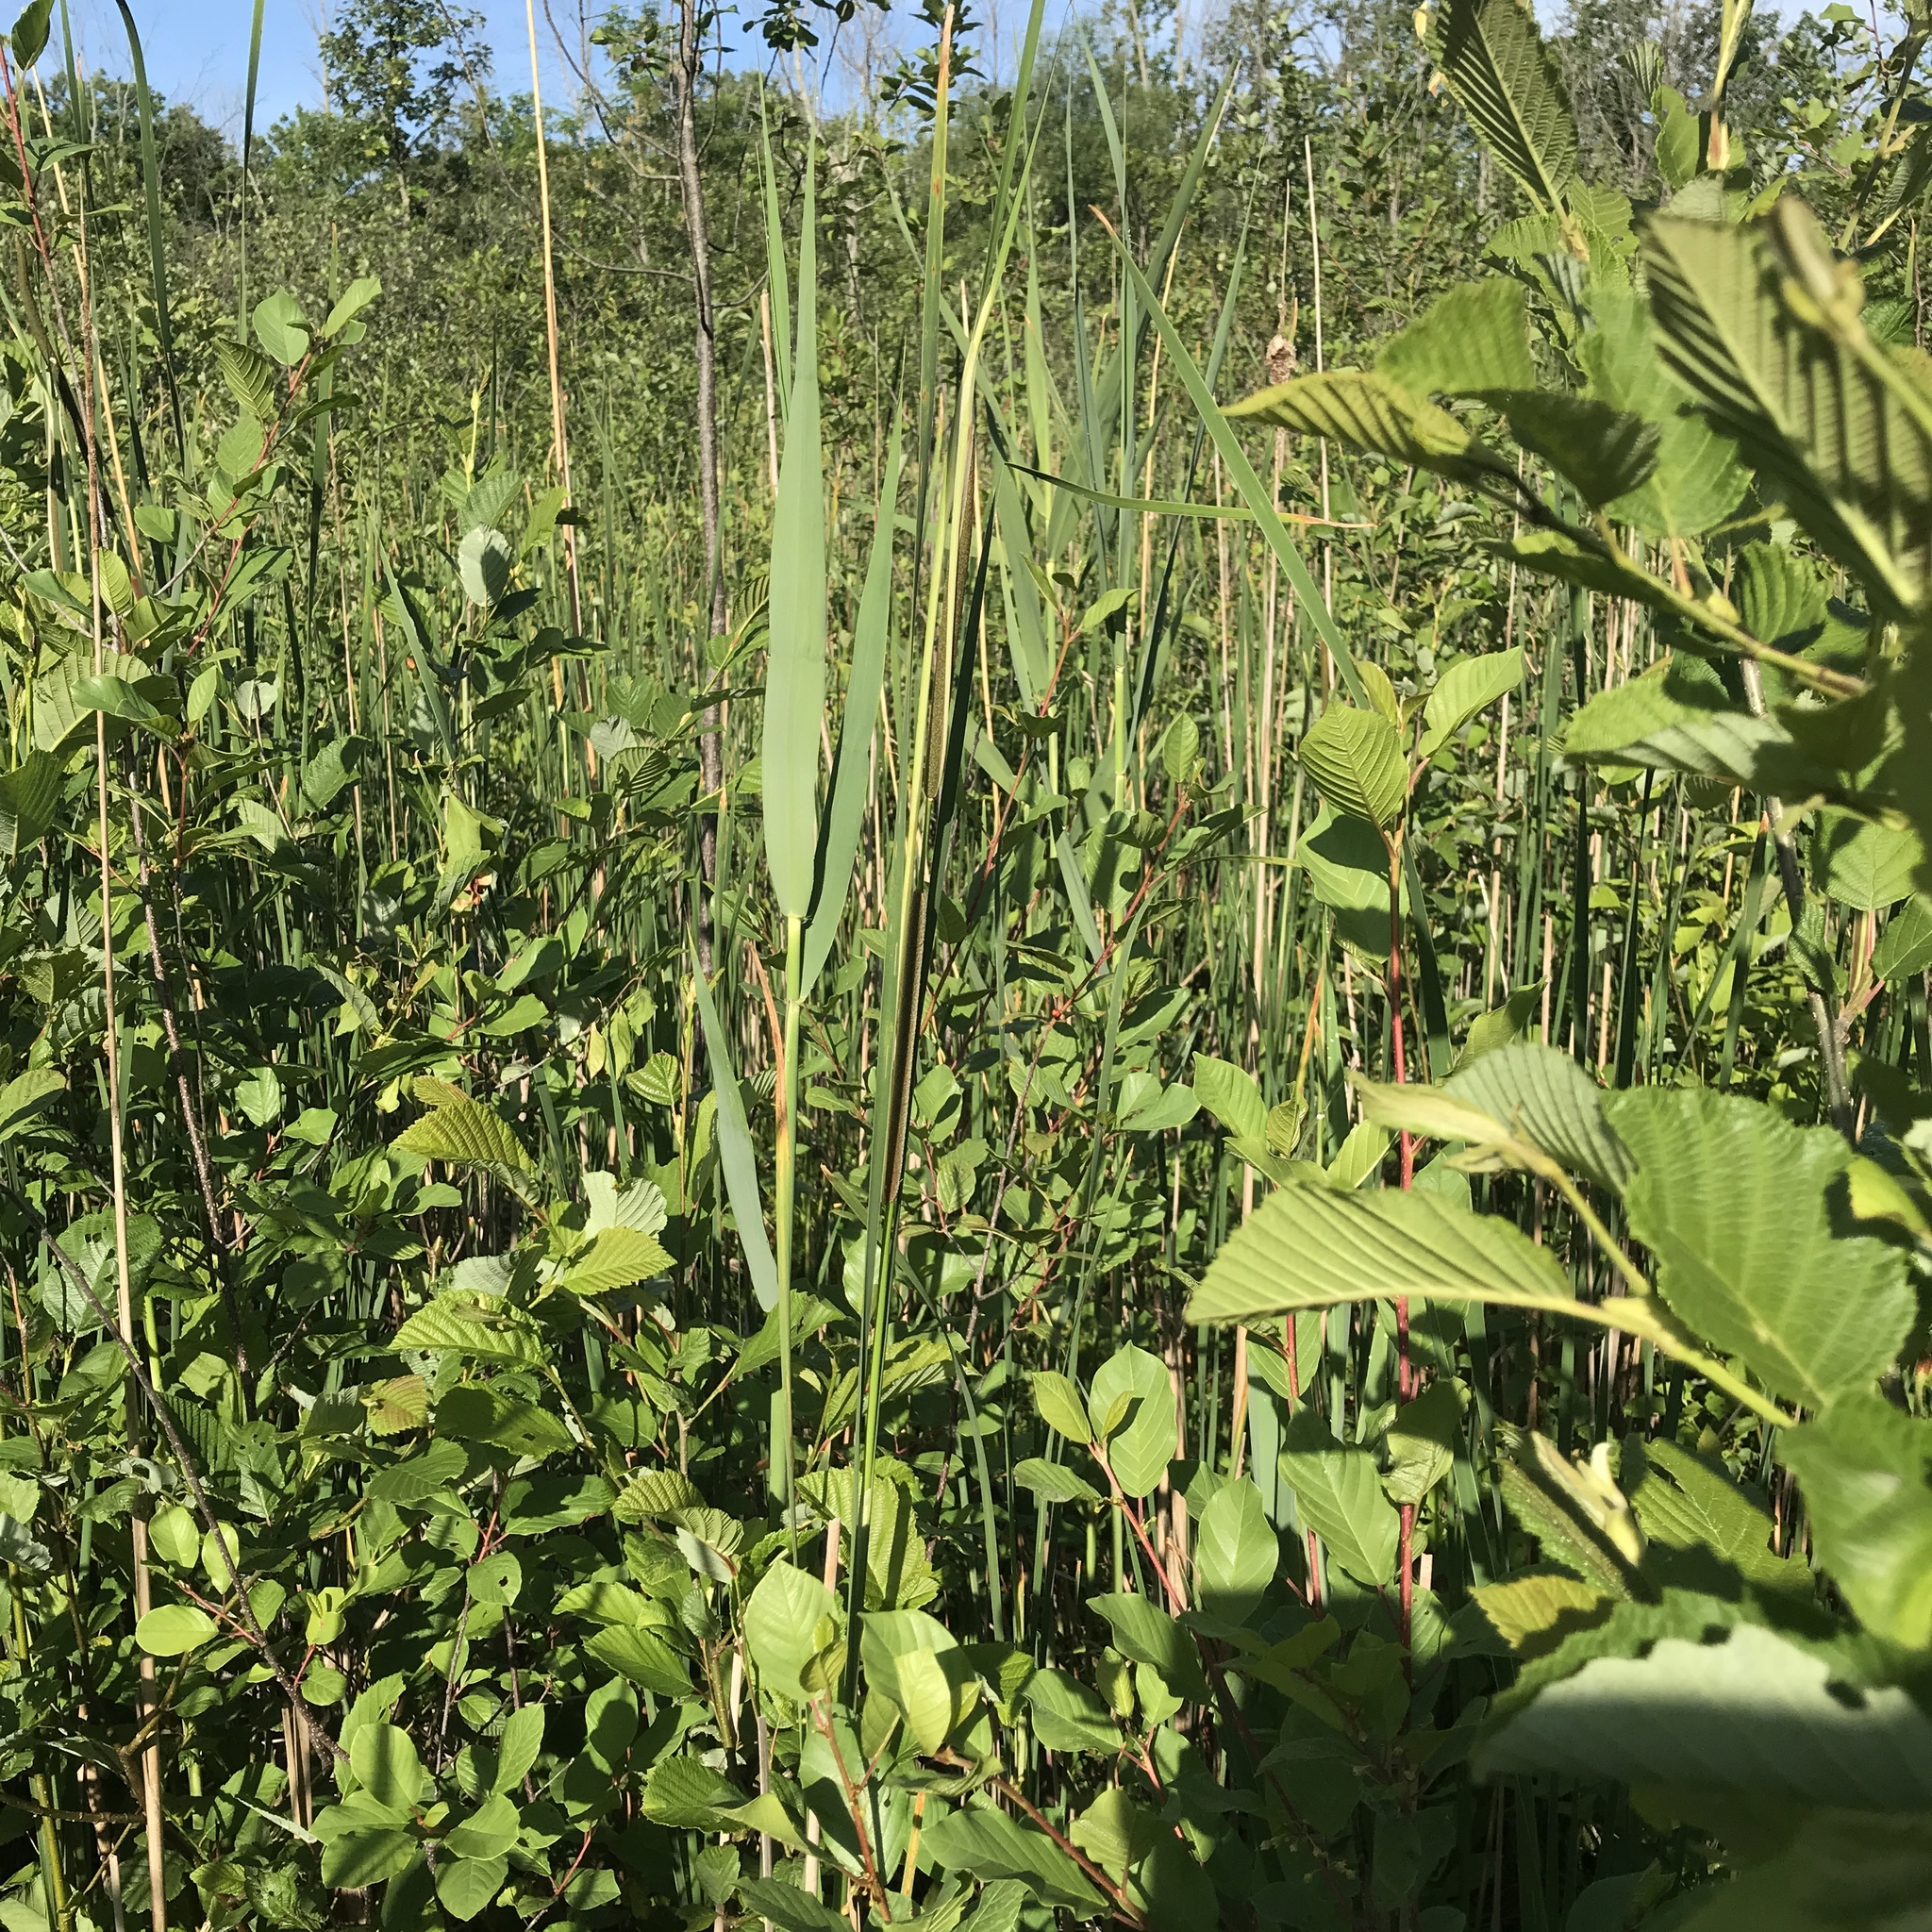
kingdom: Plantae
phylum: Tracheophyta
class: Liliopsida
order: Poales
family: Poaceae
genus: Phragmites
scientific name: Phragmites australis
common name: Common reed
